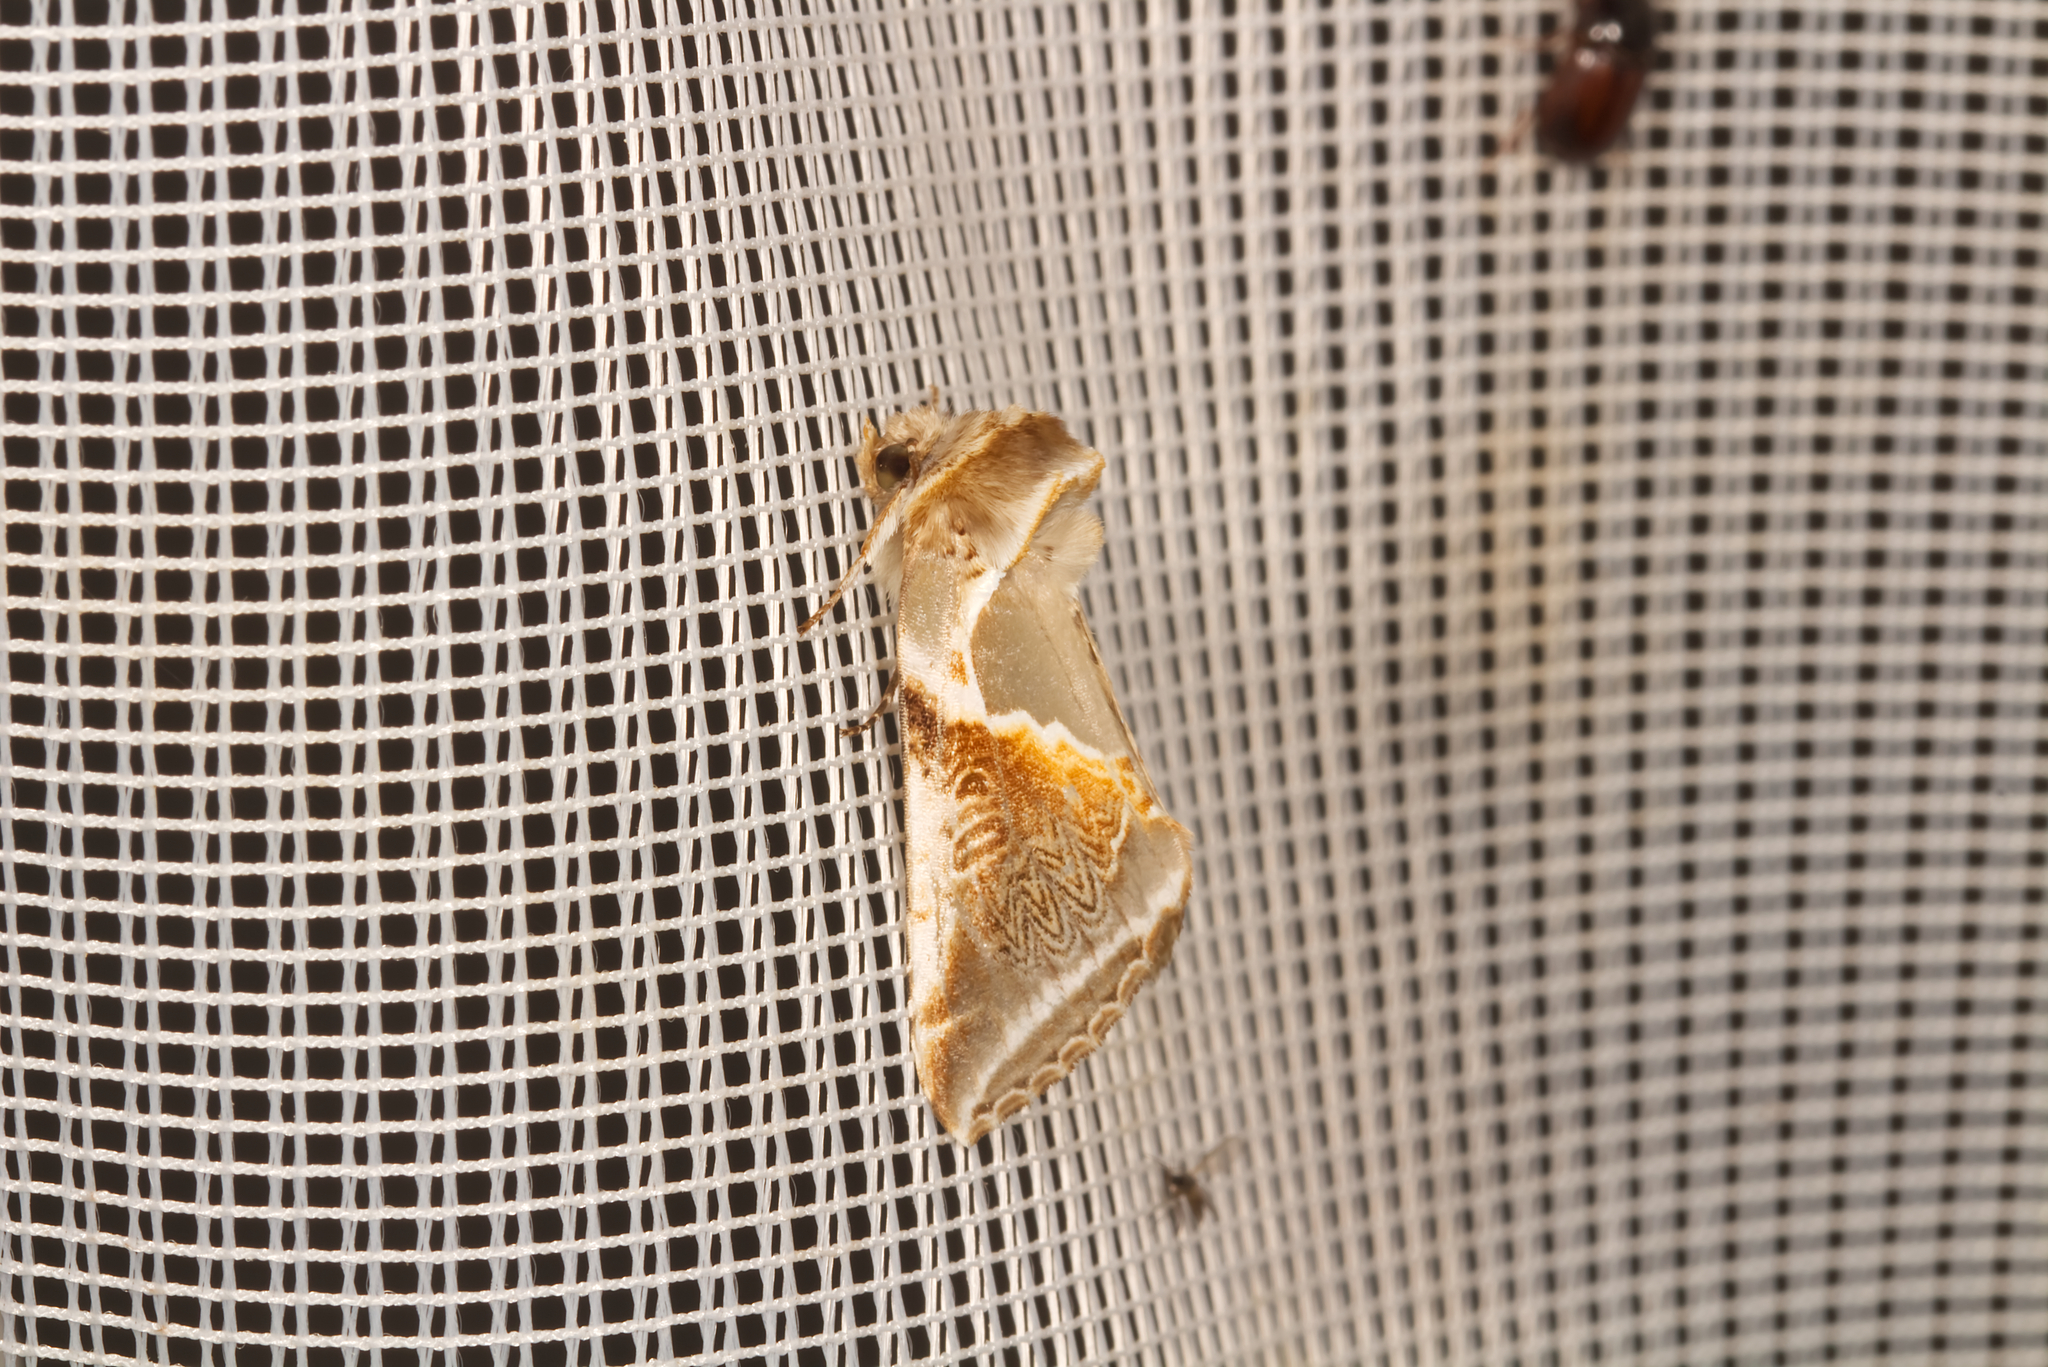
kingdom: Animalia
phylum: Arthropoda
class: Insecta
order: Lepidoptera
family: Drepanidae
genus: Habrosyne
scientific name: Habrosyne pyritoides
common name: Buff arches
